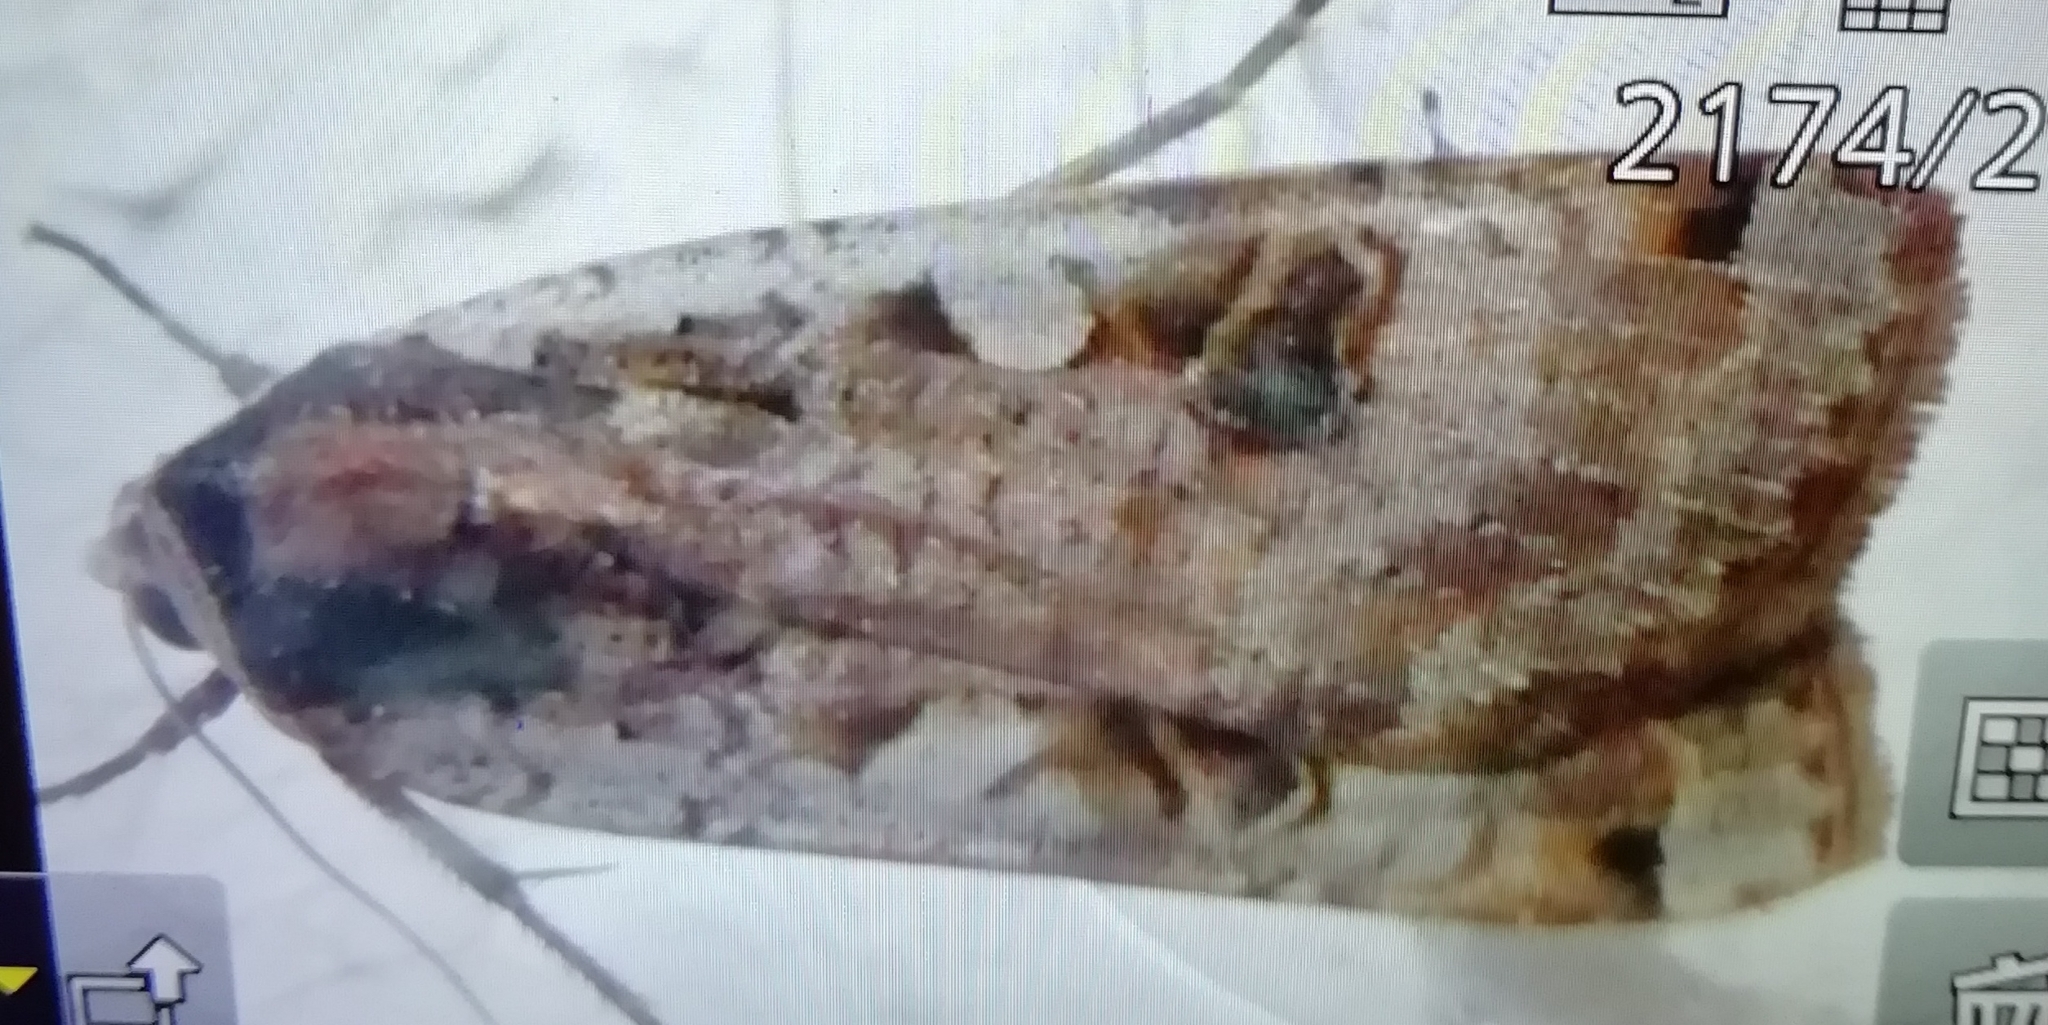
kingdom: Animalia
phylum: Arthropoda
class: Insecta
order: Lepidoptera
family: Noctuidae
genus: Noctua
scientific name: Noctua pronuba
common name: Large yellow underwing
